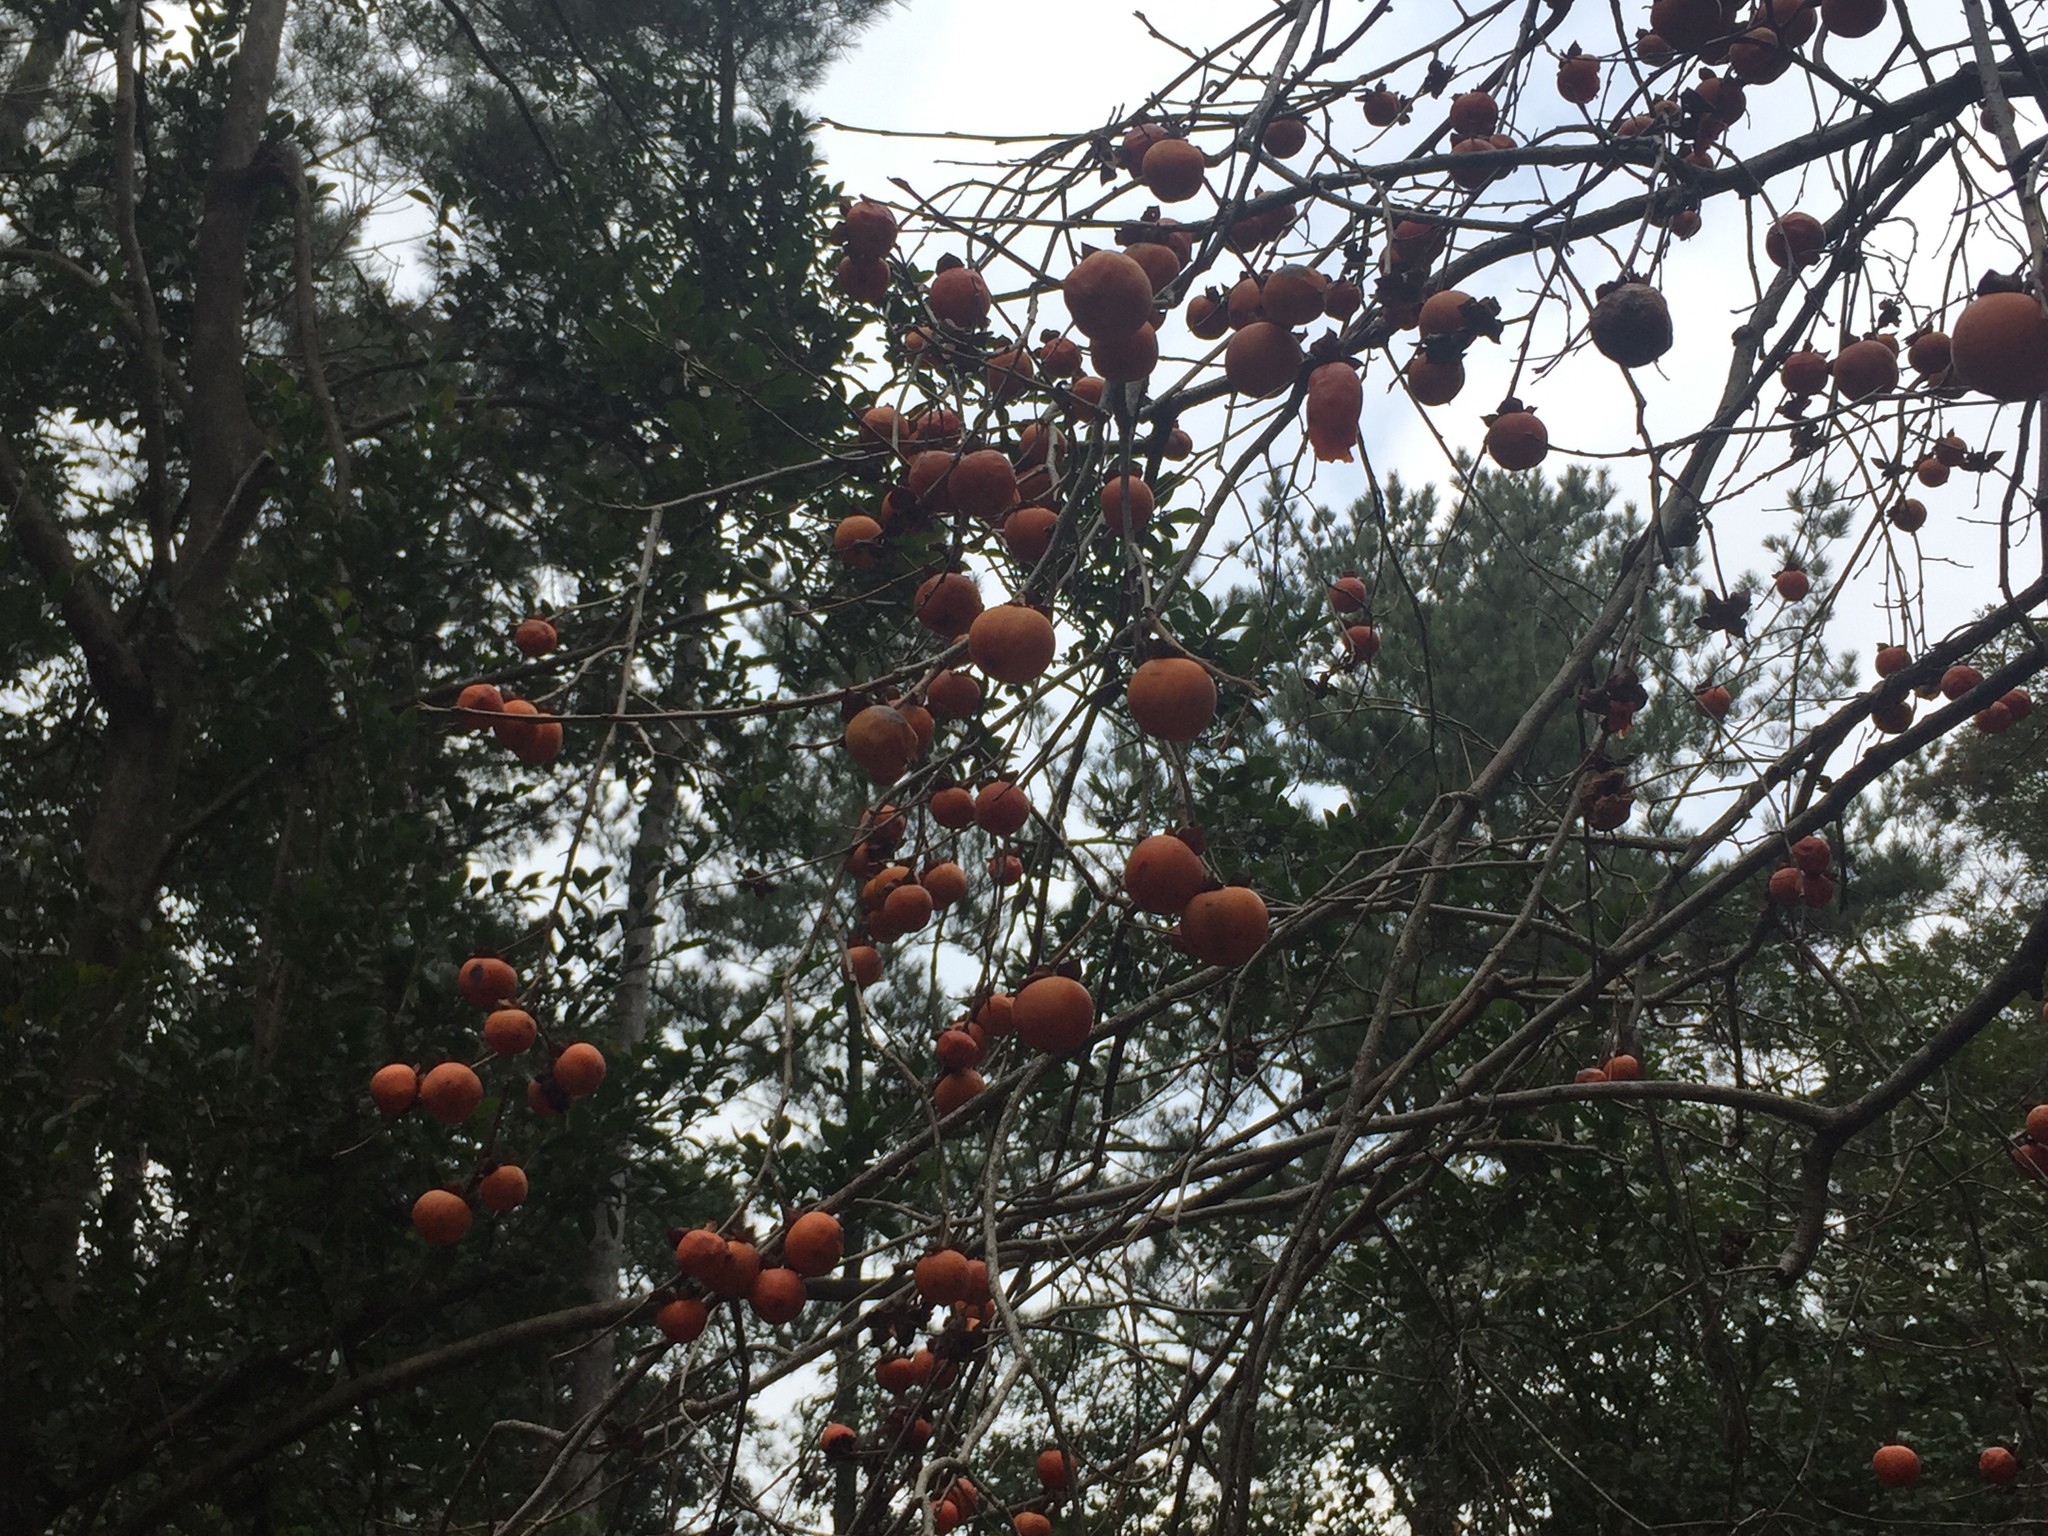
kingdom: Plantae
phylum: Tracheophyta
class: Magnoliopsida
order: Ericales
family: Ebenaceae
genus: Diospyros
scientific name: Diospyros kaki
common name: Persimmon
